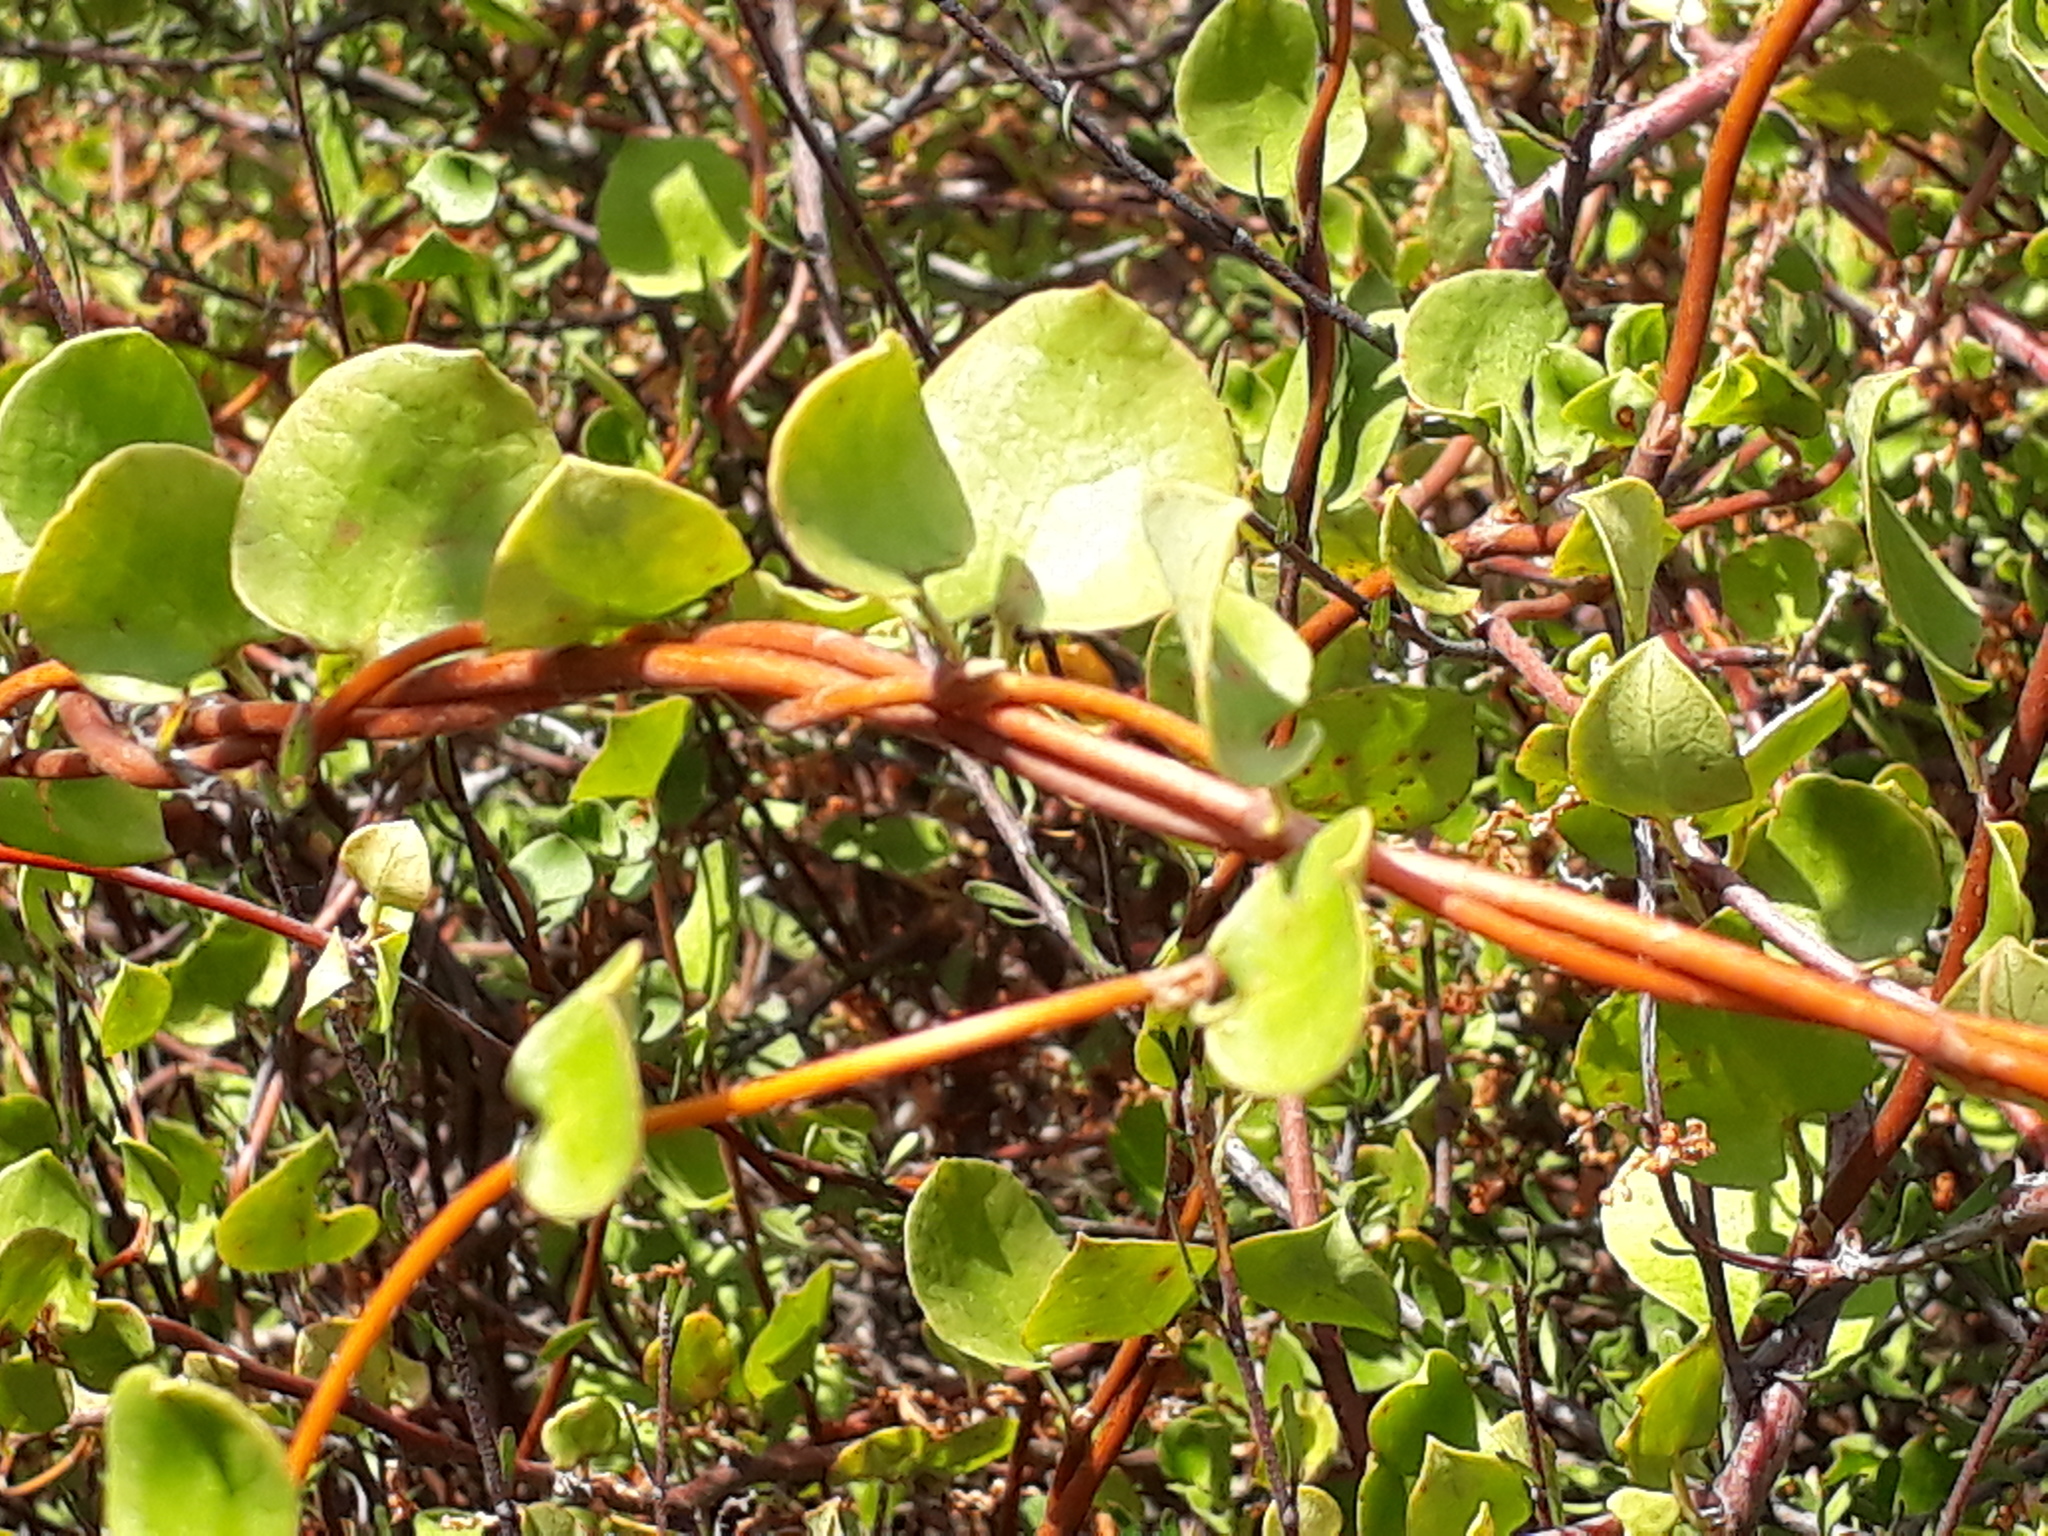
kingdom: Plantae
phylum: Tracheophyta
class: Magnoliopsida
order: Caryophyllales
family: Polygonaceae
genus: Muehlenbeckia
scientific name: Muehlenbeckia complexa
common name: Wireplant
